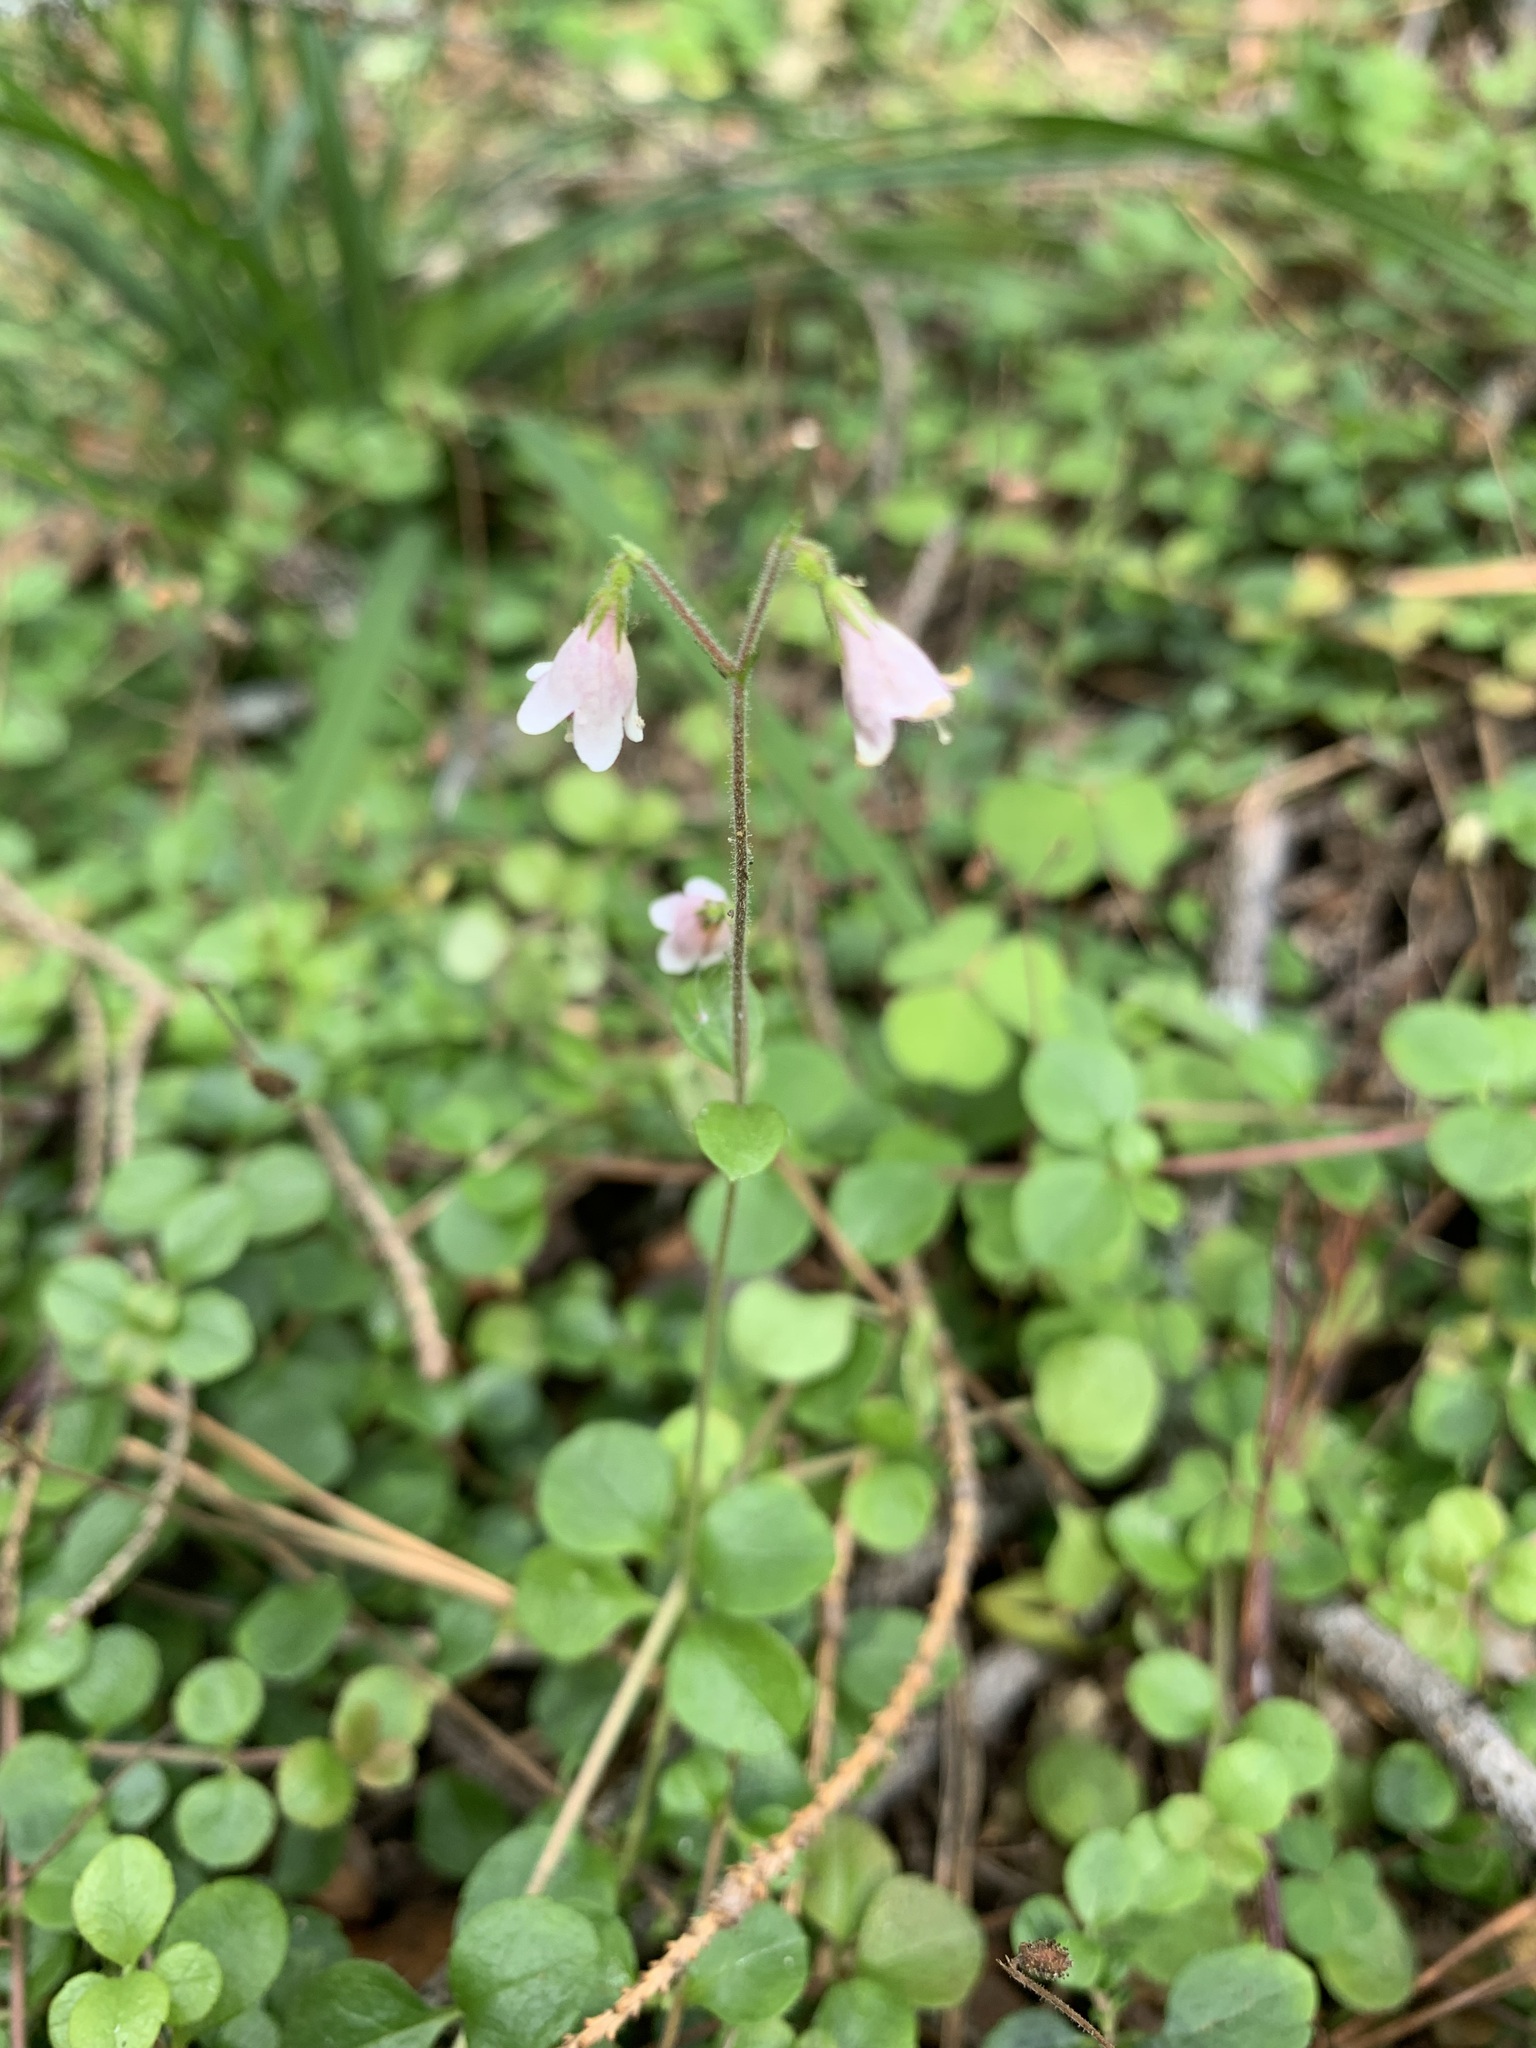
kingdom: Plantae
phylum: Tracheophyta
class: Magnoliopsida
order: Dipsacales
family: Caprifoliaceae
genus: Linnaea
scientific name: Linnaea borealis
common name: Twinflower
